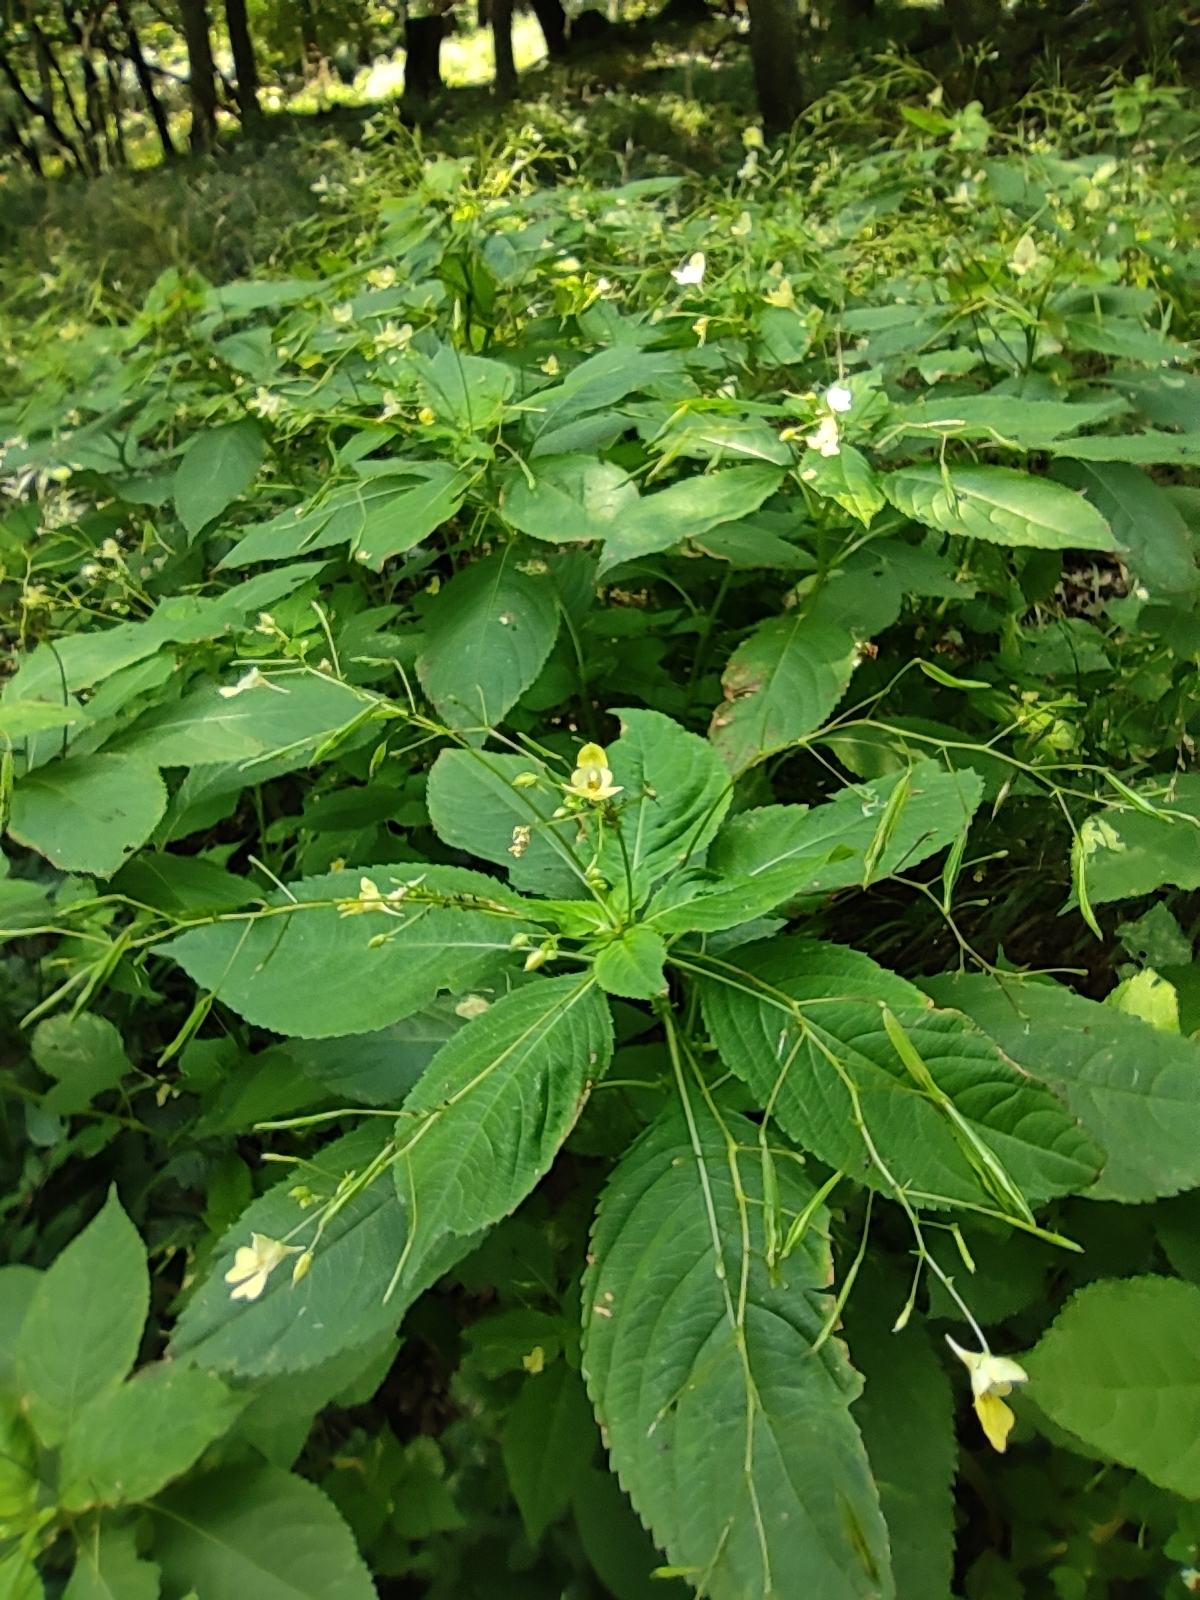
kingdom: Plantae
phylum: Tracheophyta
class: Magnoliopsida
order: Ericales
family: Balsaminaceae
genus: Impatiens
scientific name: Impatiens parviflora
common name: Small balsam
